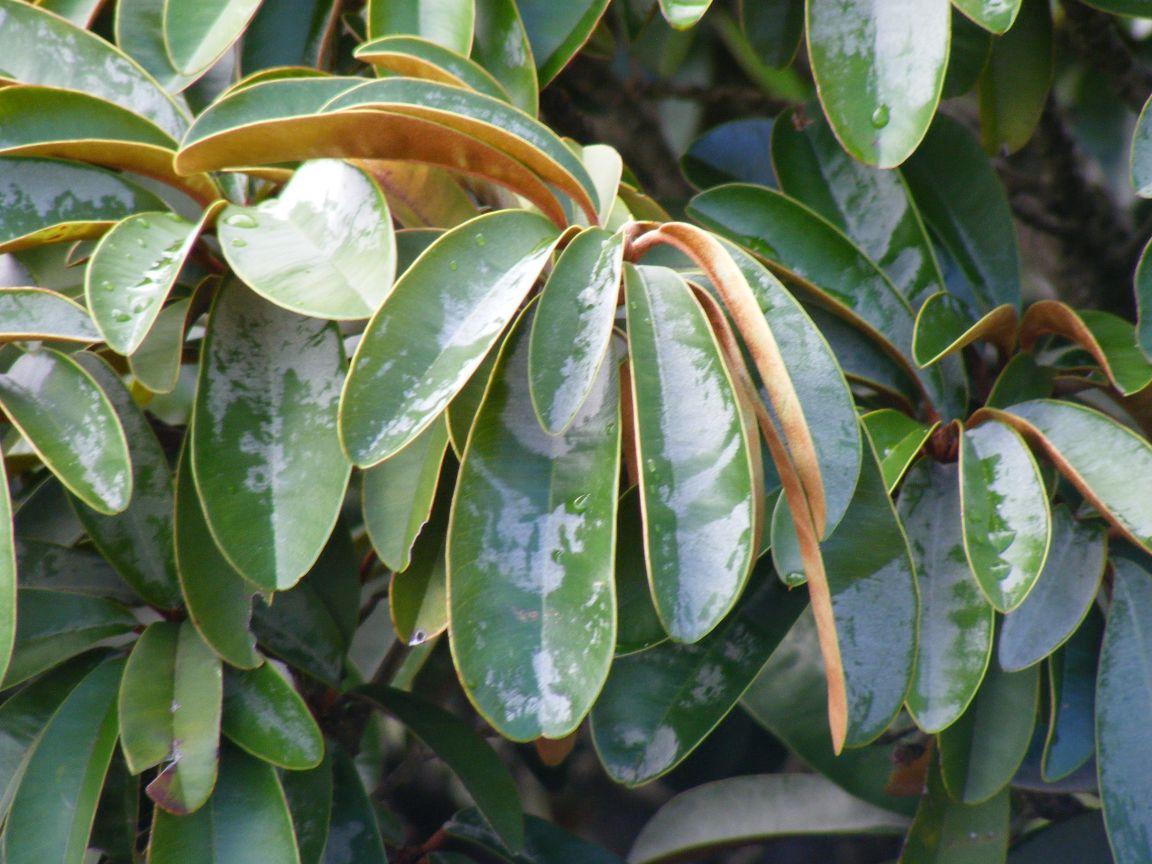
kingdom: Plantae
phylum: Tracheophyta
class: Magnoliopsida
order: Ericales
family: Sapotaceae
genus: Englerophytum
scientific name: Englerophytum magalismontanum
